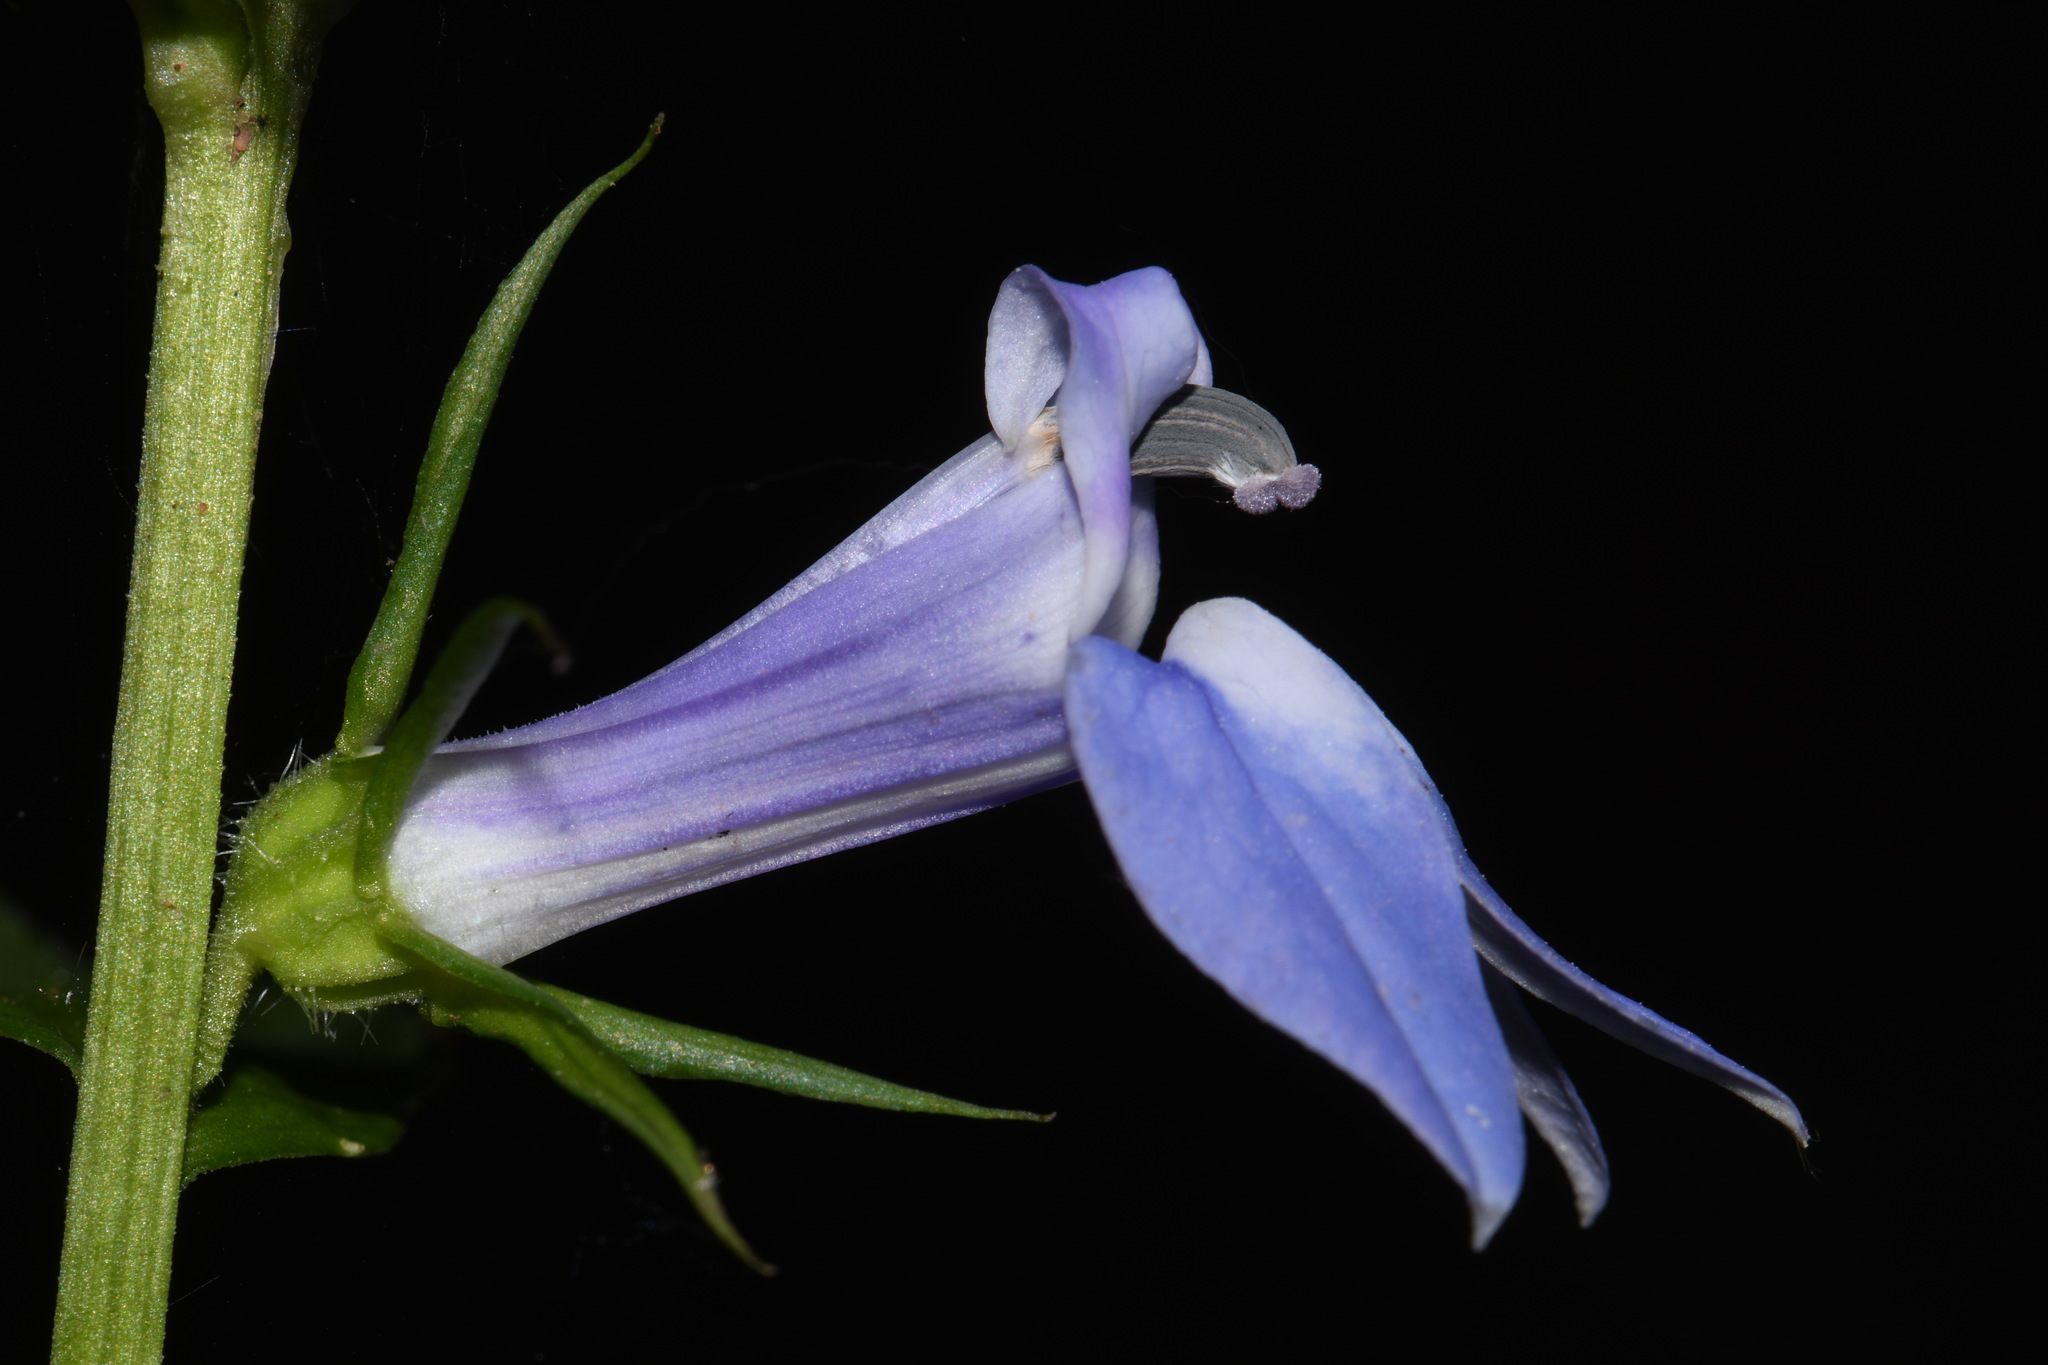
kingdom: Plantae
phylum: Tracheophyta
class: Magnoliopsida
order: Asterales
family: Campanulaceae
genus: Lobelia
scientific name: Lobelia siphilitica
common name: Great lobelia
